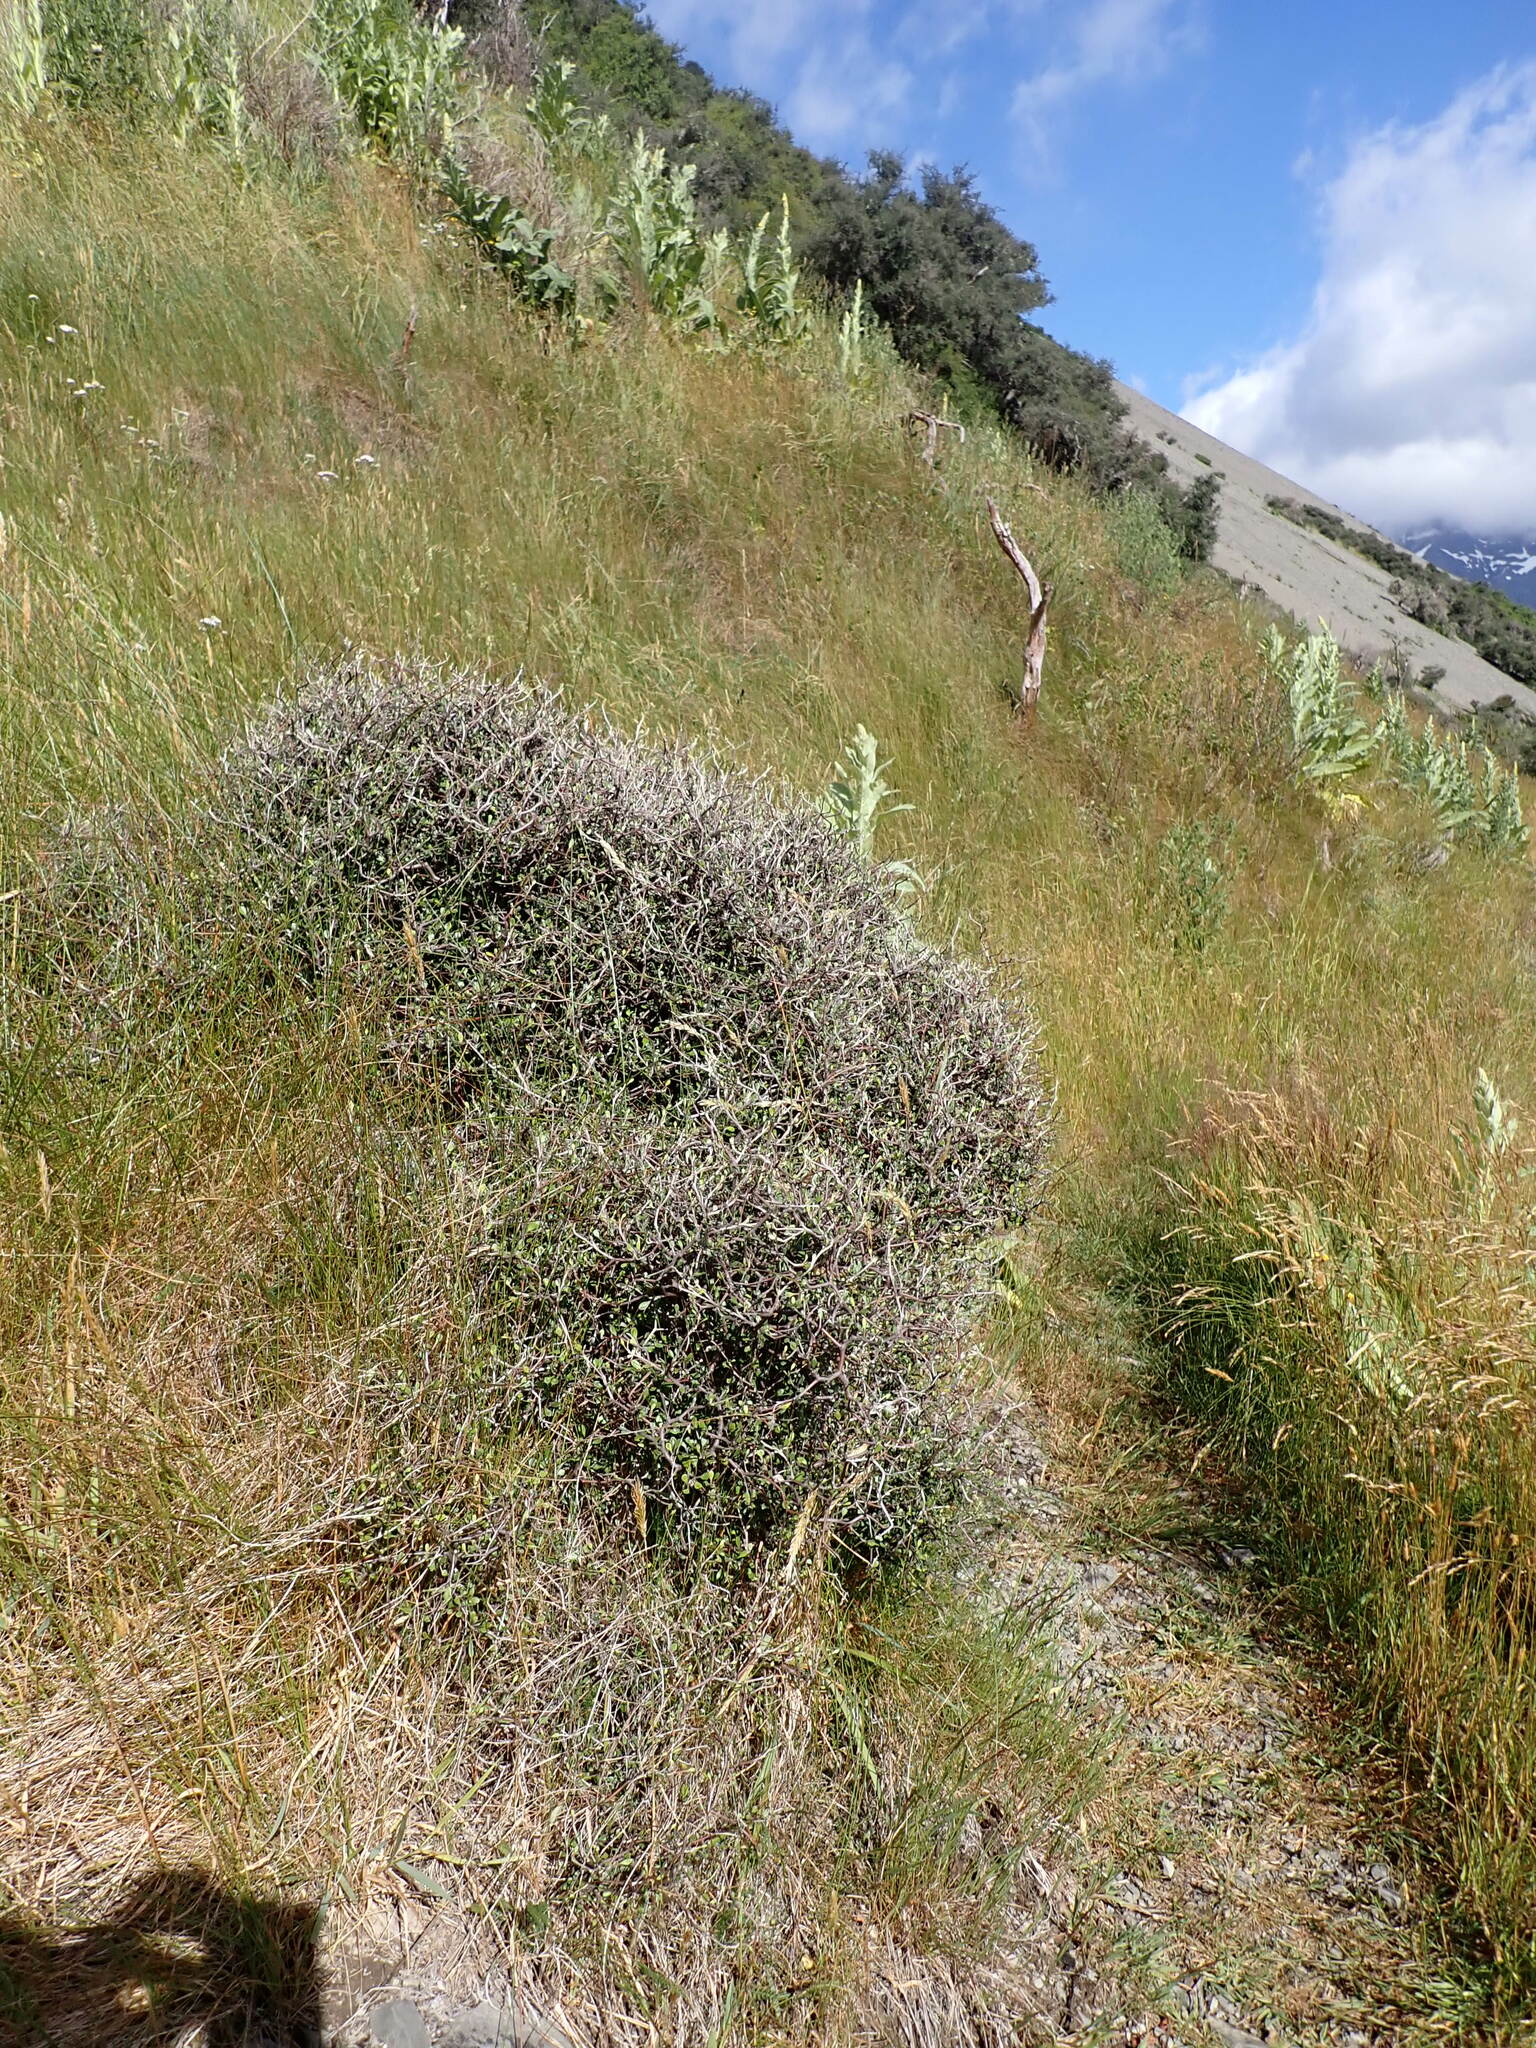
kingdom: Plantae
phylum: Tracheophyta
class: Magnoliopsida
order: Asterales
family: Argophyllaceae
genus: Corokia
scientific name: Corokia cotoneaster
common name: Wire nettingbush
